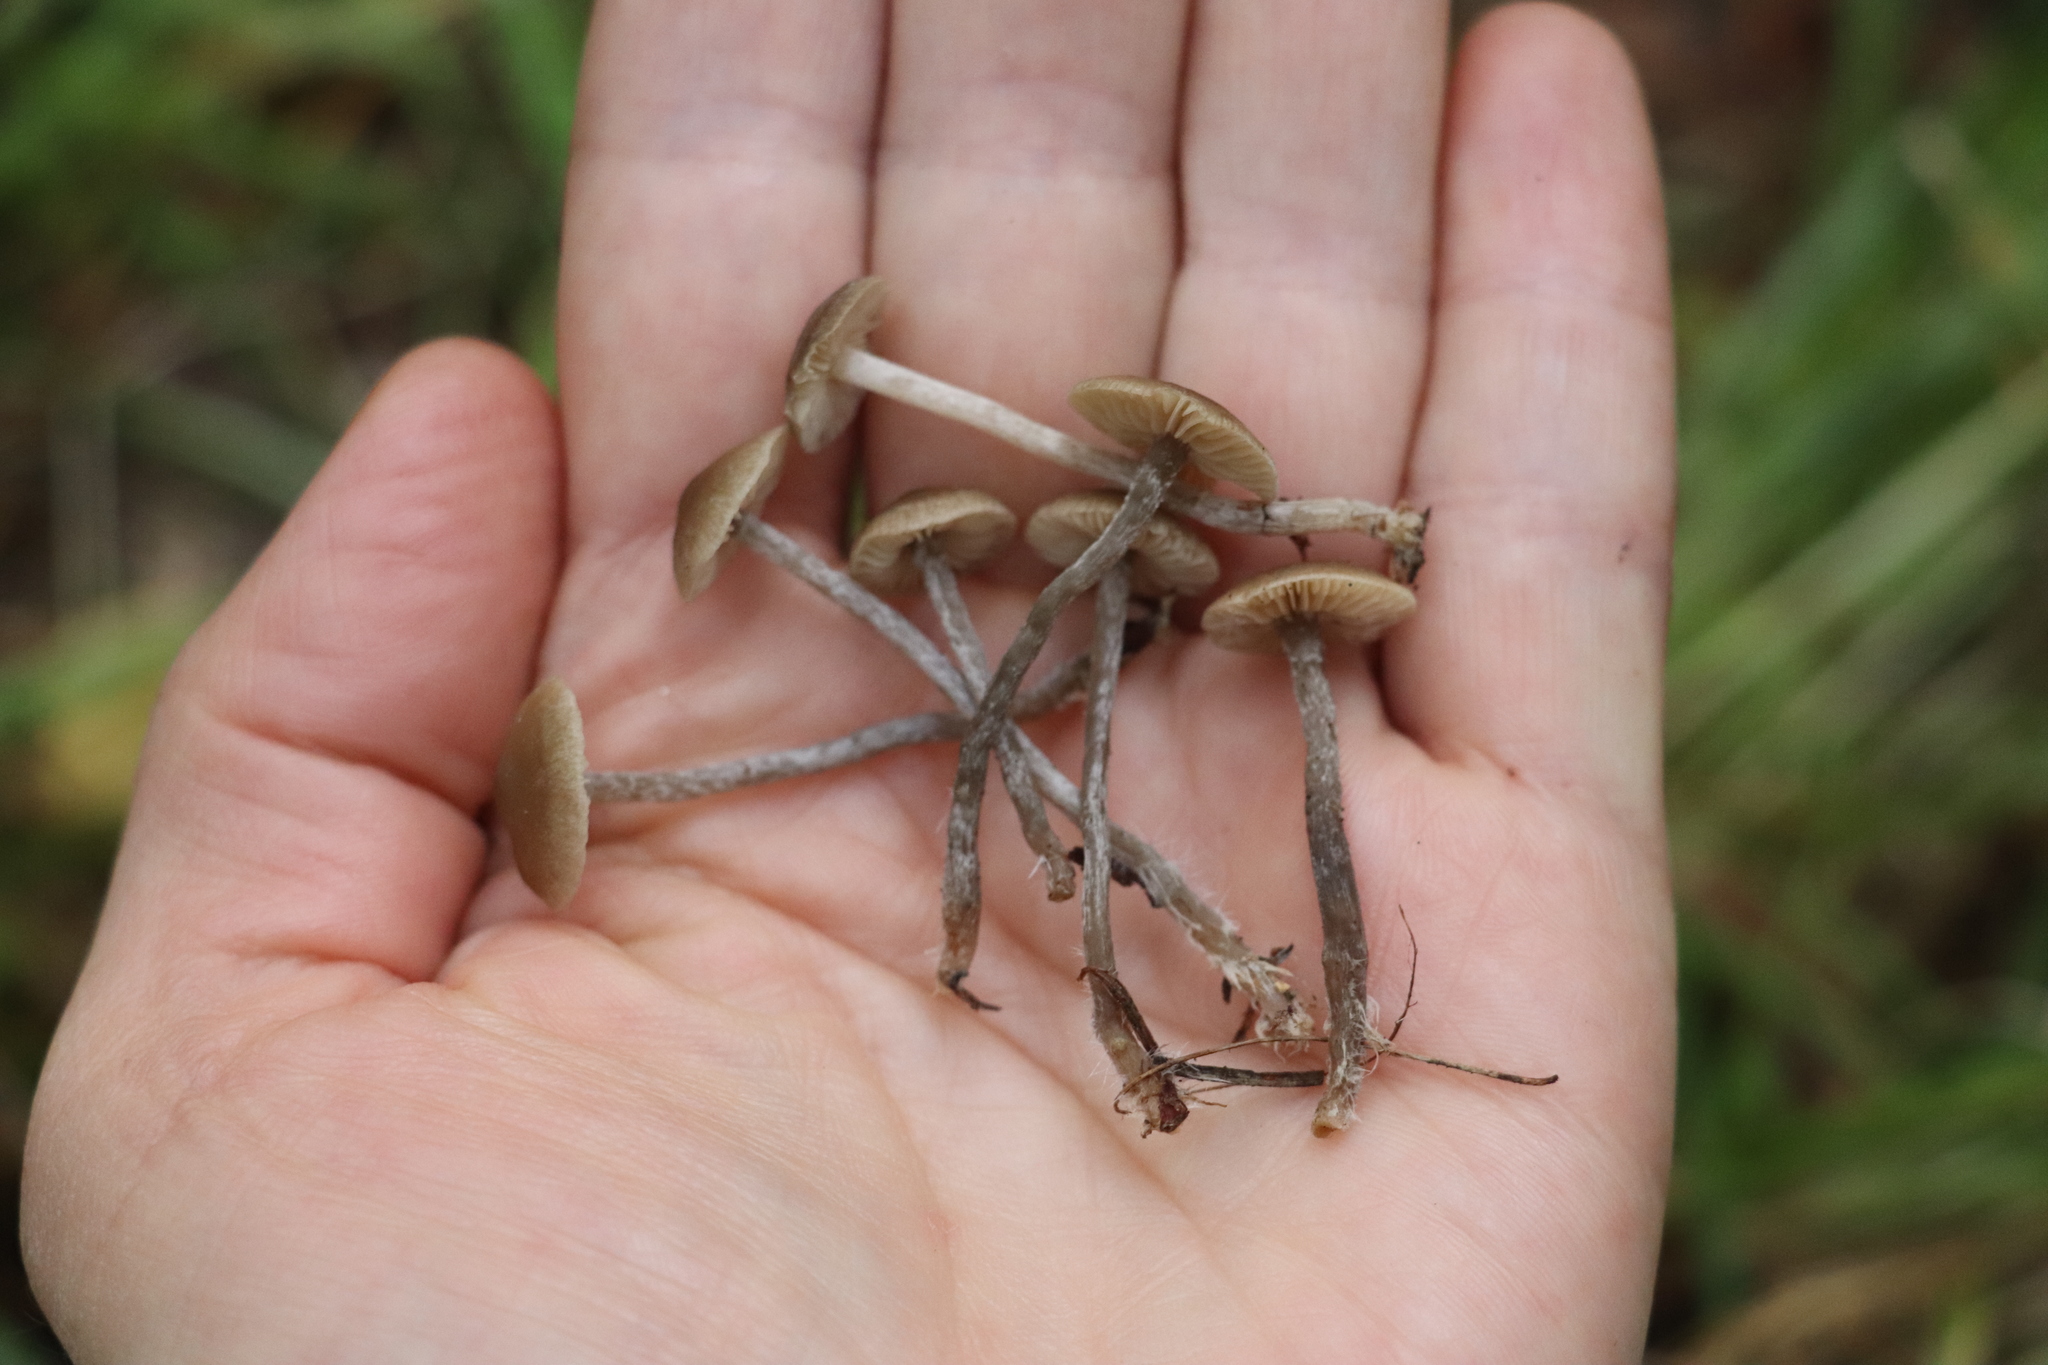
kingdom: Fungi
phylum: Basidiomycota
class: Agaricomycetes
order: Agaricales
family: Lyophyllaceae
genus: Tephrocybe
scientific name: Tephrocybe rancida
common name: Rancid greyling
